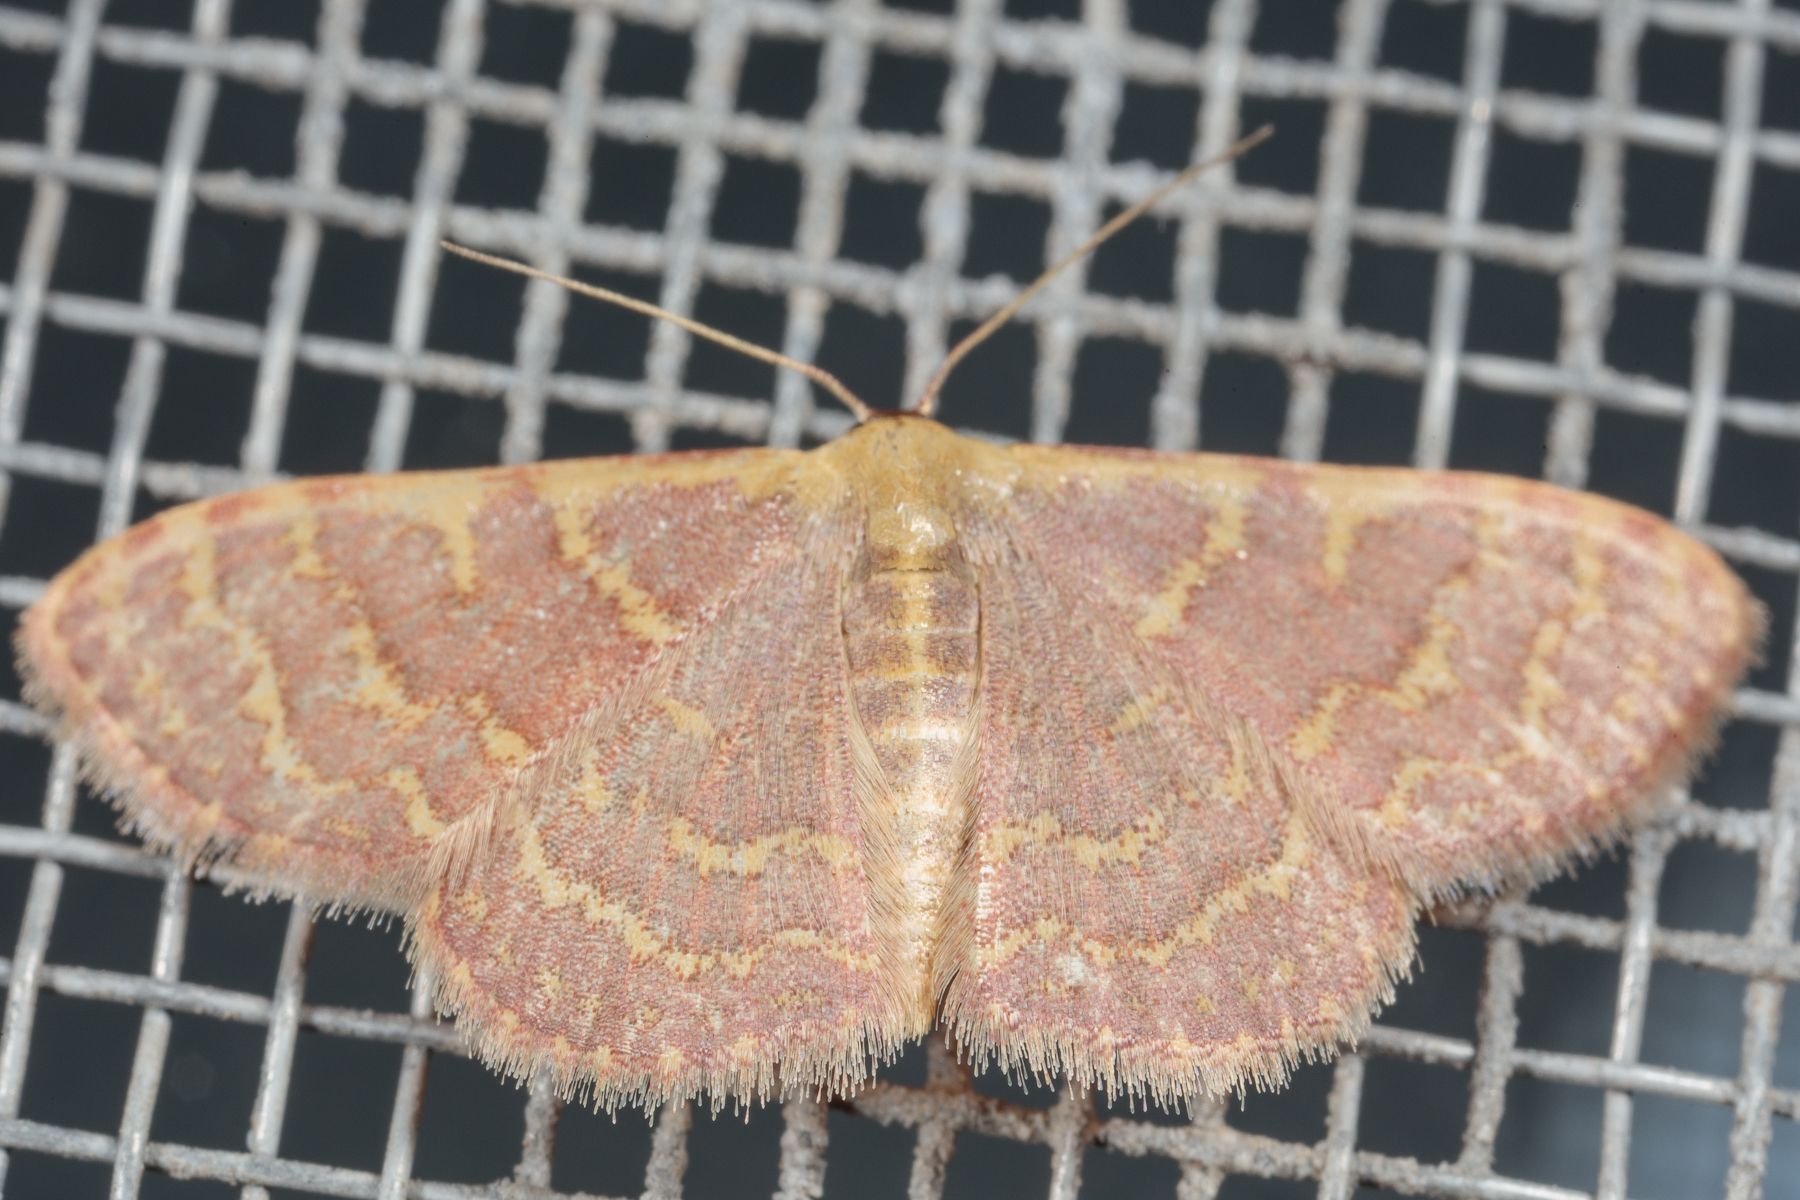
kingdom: Animalia
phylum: Arthropoda
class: Insecta
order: Lepidoptera
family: Geometridae
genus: Leptostales
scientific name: Leptostales pannaria
